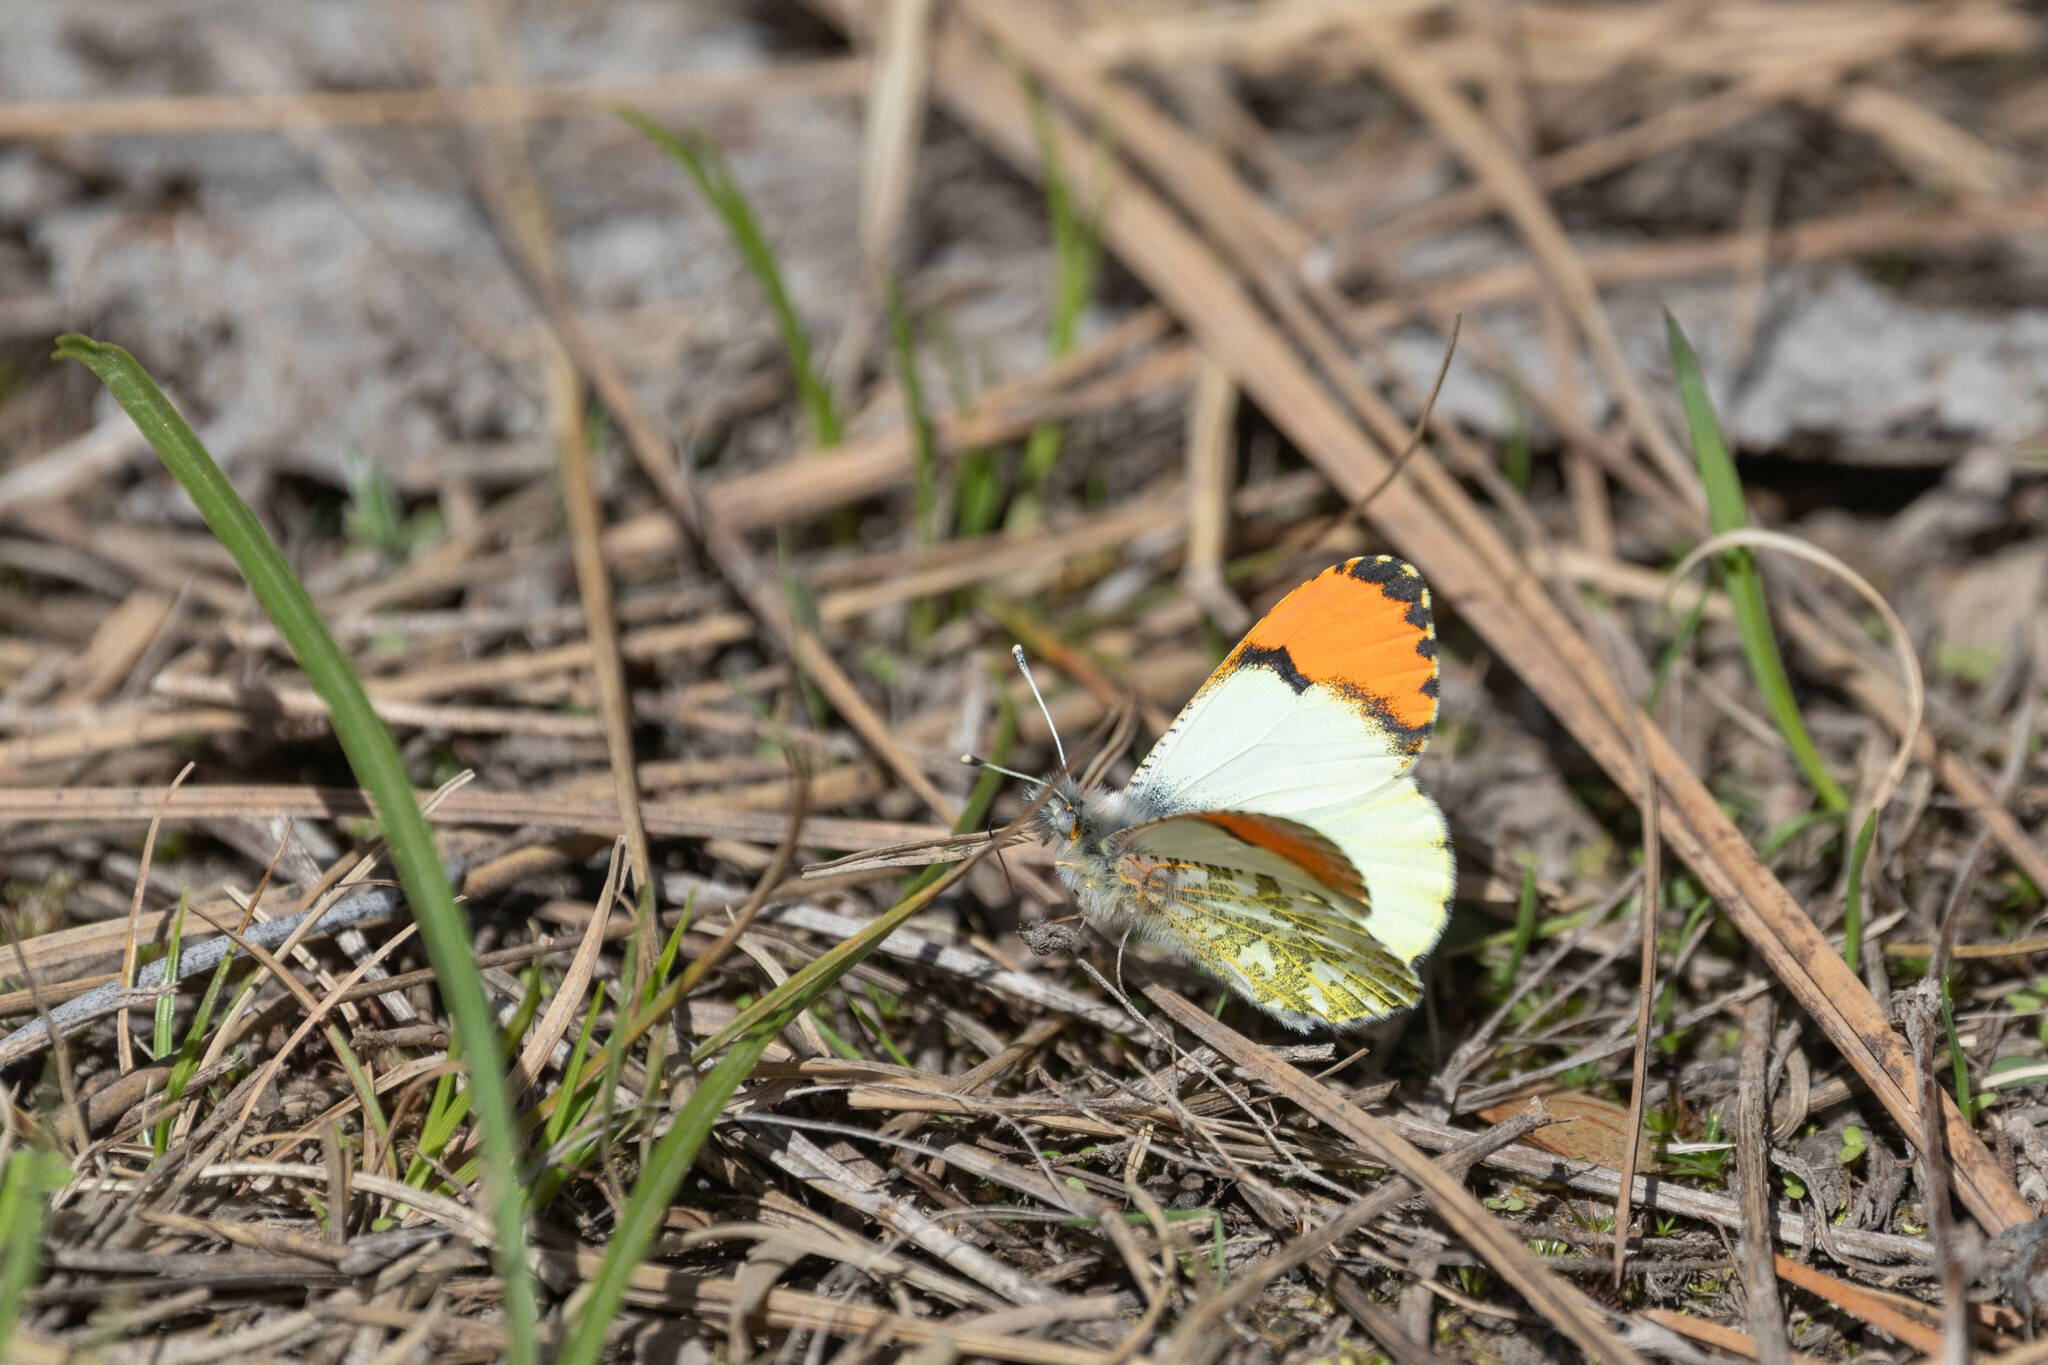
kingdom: Animalia
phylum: Arthropoda
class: Insecta
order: Lepidoptera
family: Pieridae
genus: Anthocharis
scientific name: Anthocharis julia
